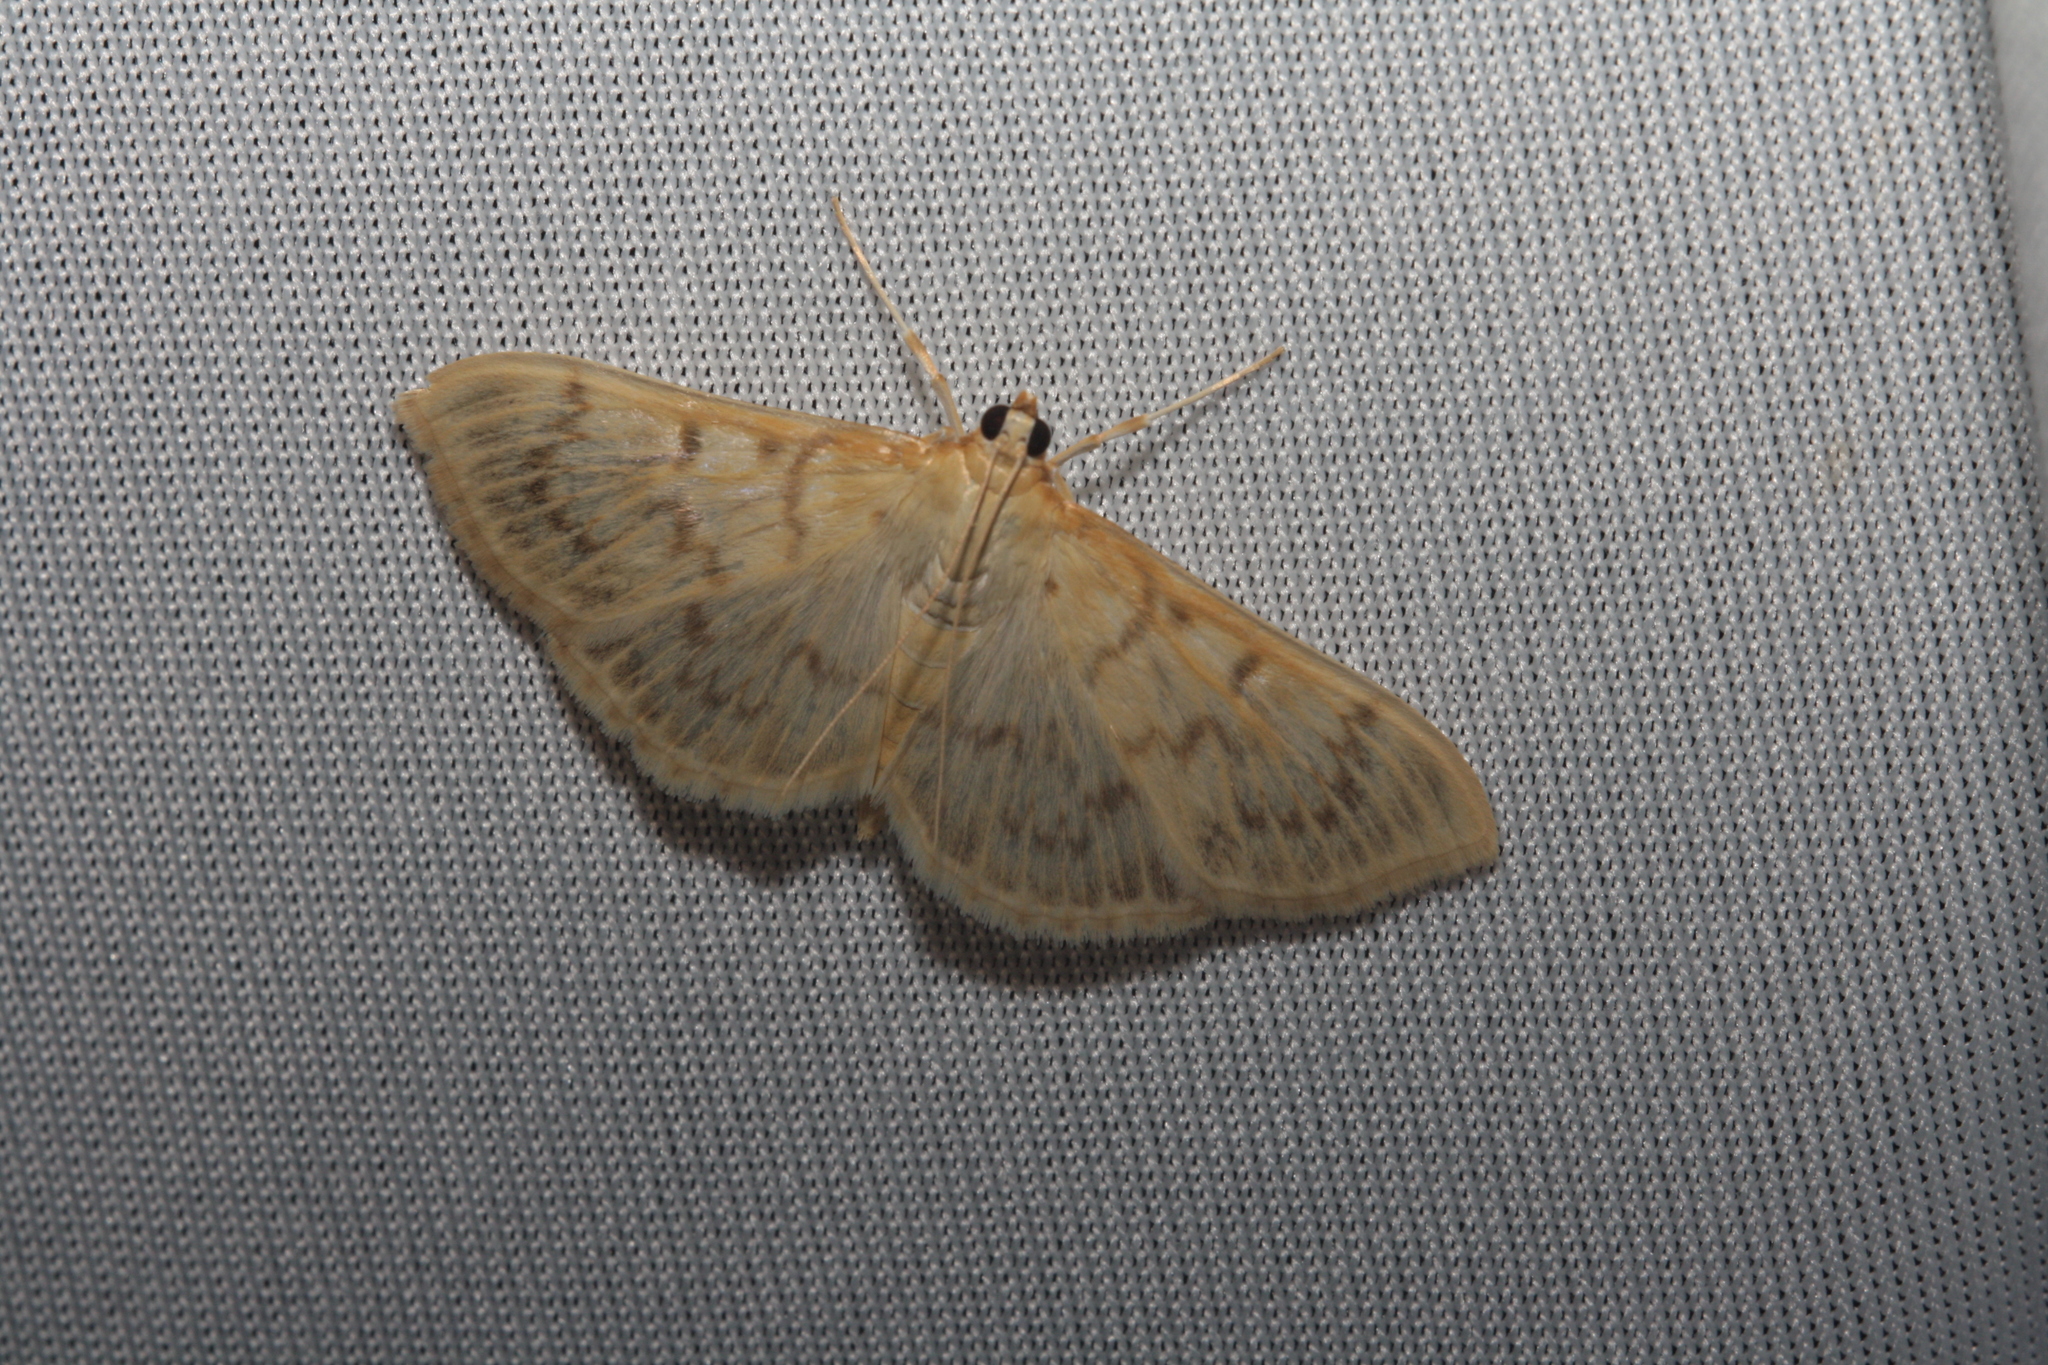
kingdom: Animalia
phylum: Arthropoda
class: Insecta
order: Lepidoptera
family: Crambidae
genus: Patania
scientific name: Patania ruralis
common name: Mother of pearl
